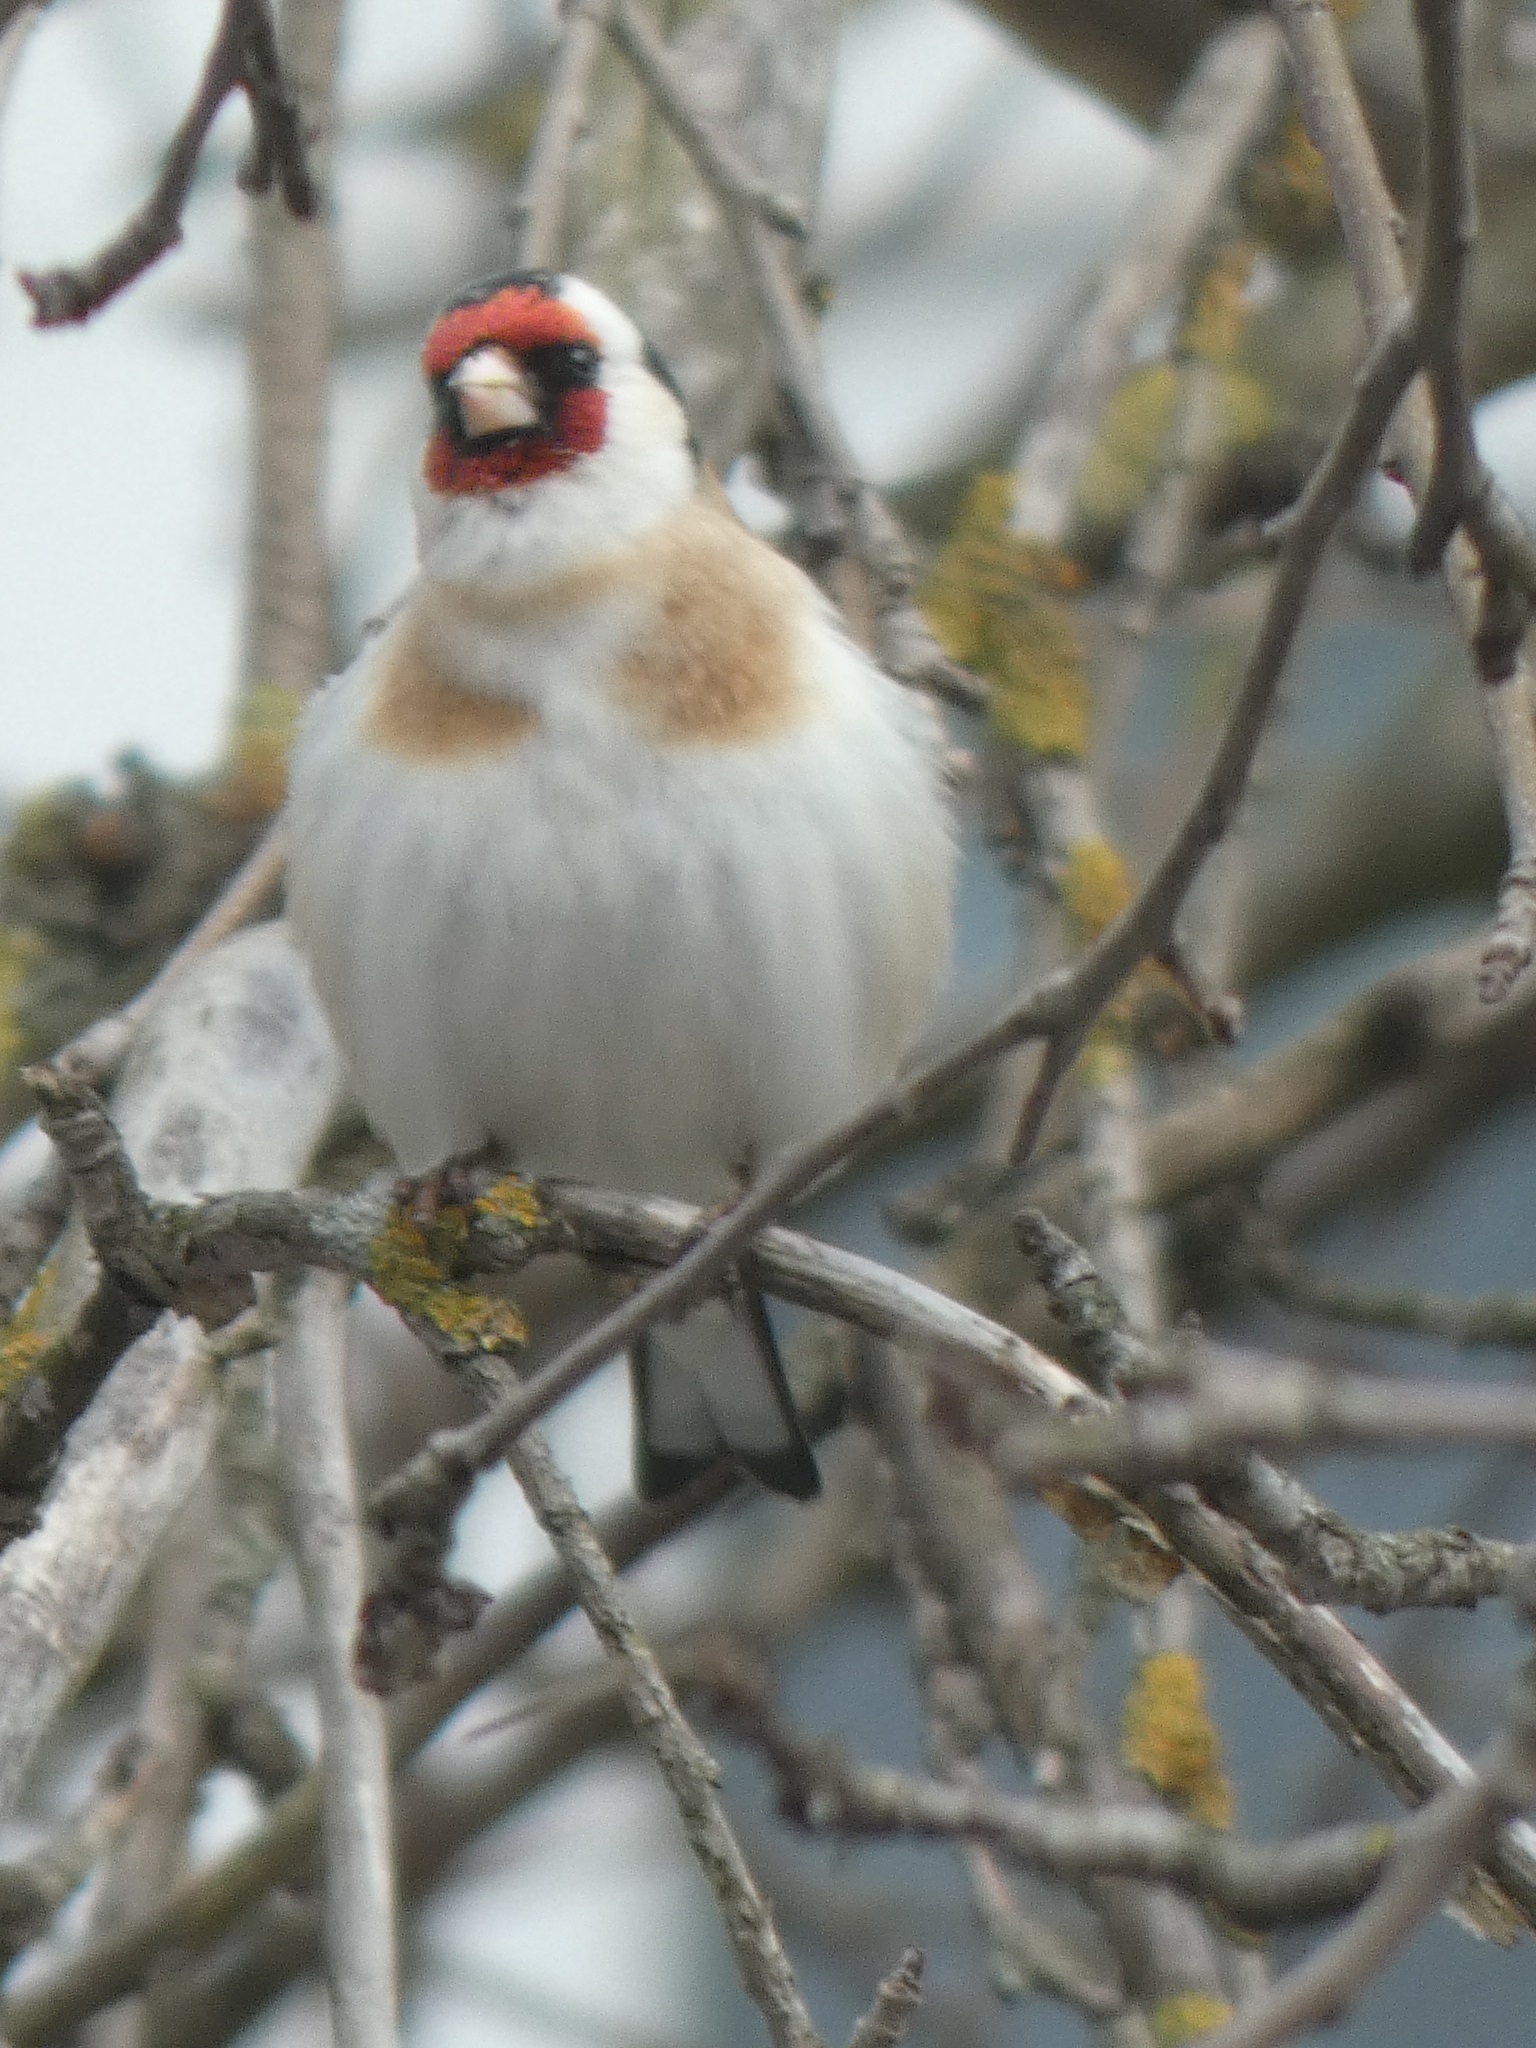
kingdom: Animalia
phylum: Chordata
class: Aves
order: Passeriformes
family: Fringillidae
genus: Carduelis
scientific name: Carduelis carduelis
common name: European goldfinch
